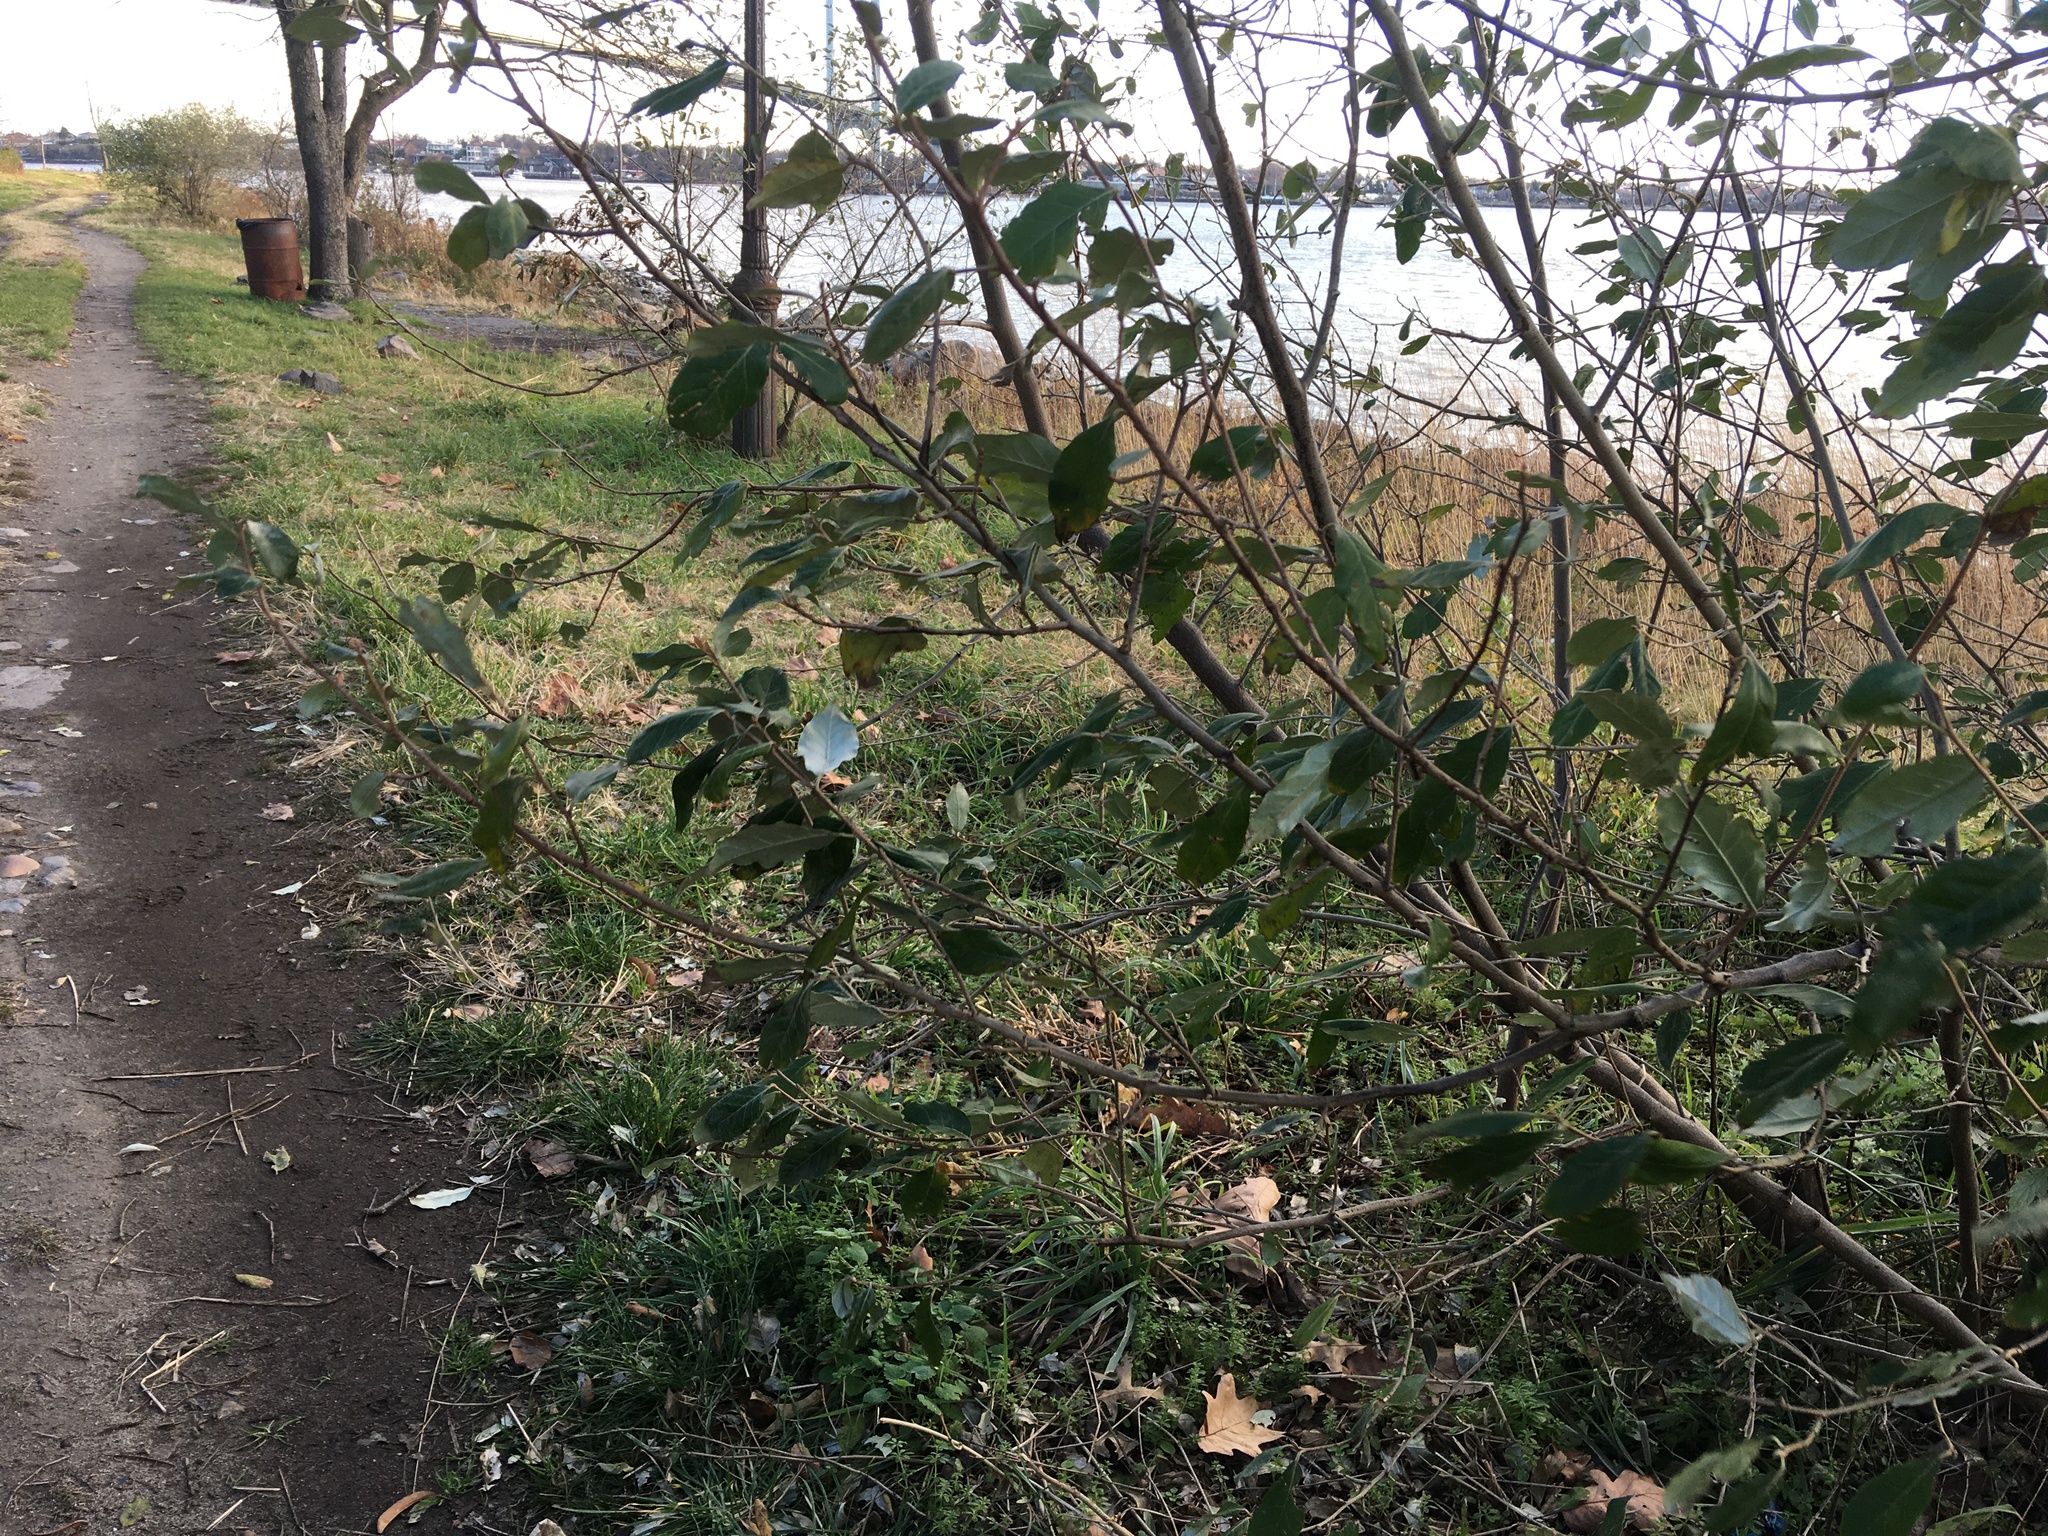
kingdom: Plantae
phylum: Tracheophyta
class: Magnoliopsida
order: Rosales
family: Elaeagnaceae
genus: Elaeagnus
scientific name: Elaeagnus umbellata
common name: Autumn olive
